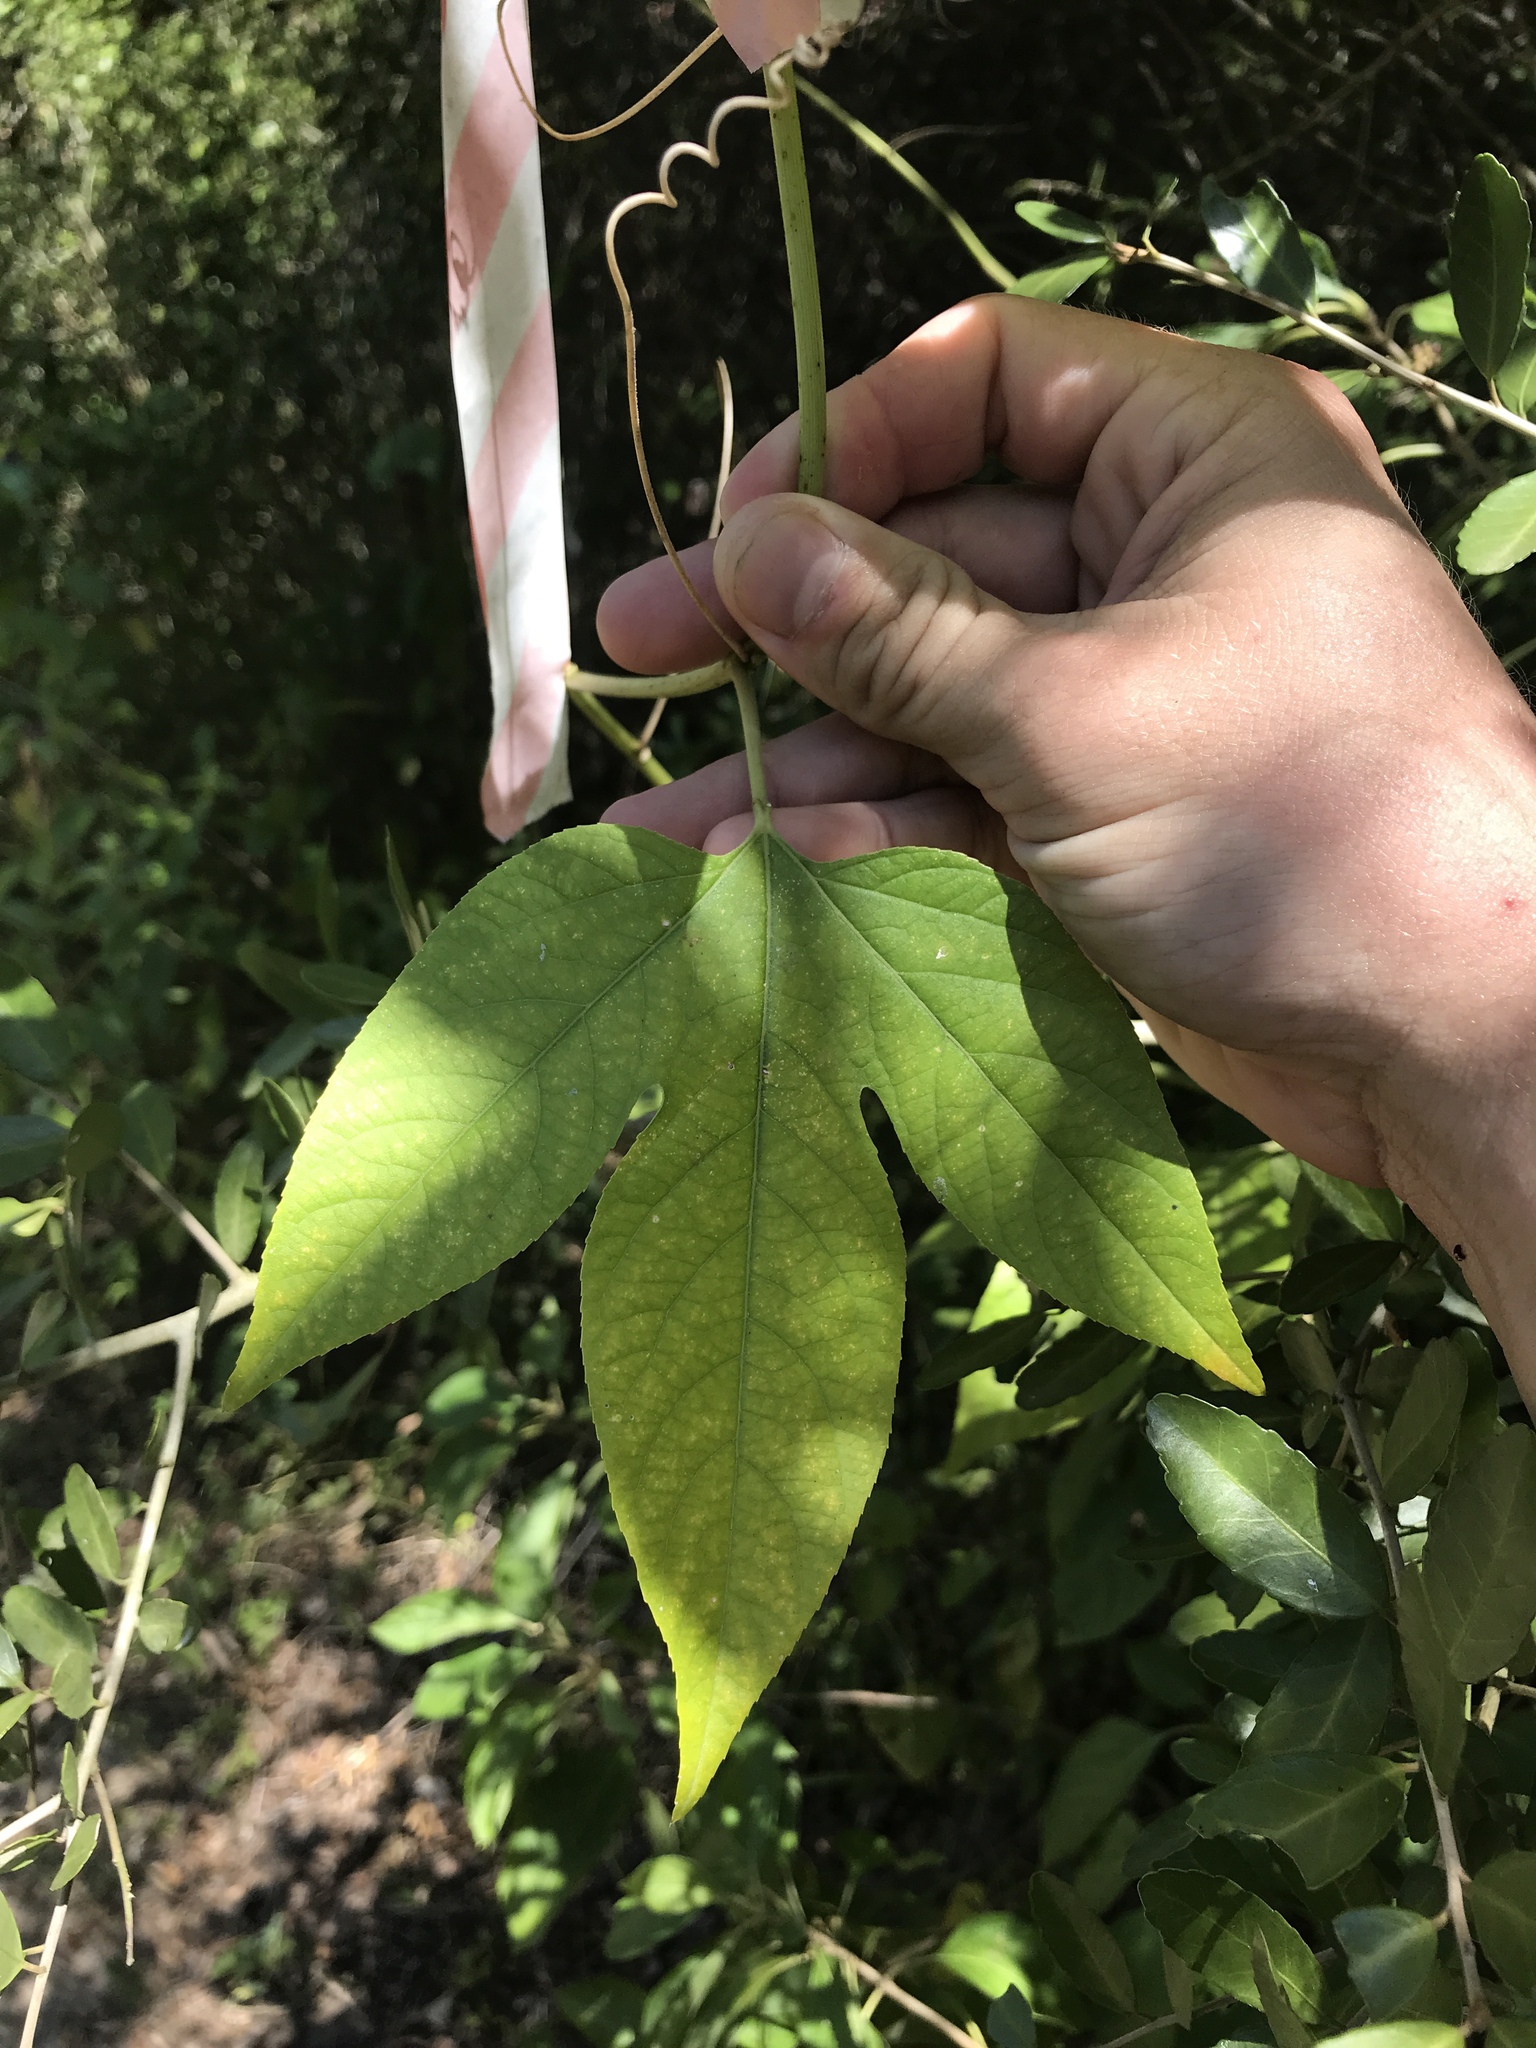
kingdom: Plantae
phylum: Tracheophyta
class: Magnoliopsida
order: Malpighiales
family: Passifloraceae
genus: Passiflora
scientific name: Passiflora incarnata
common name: Apricot-vine
